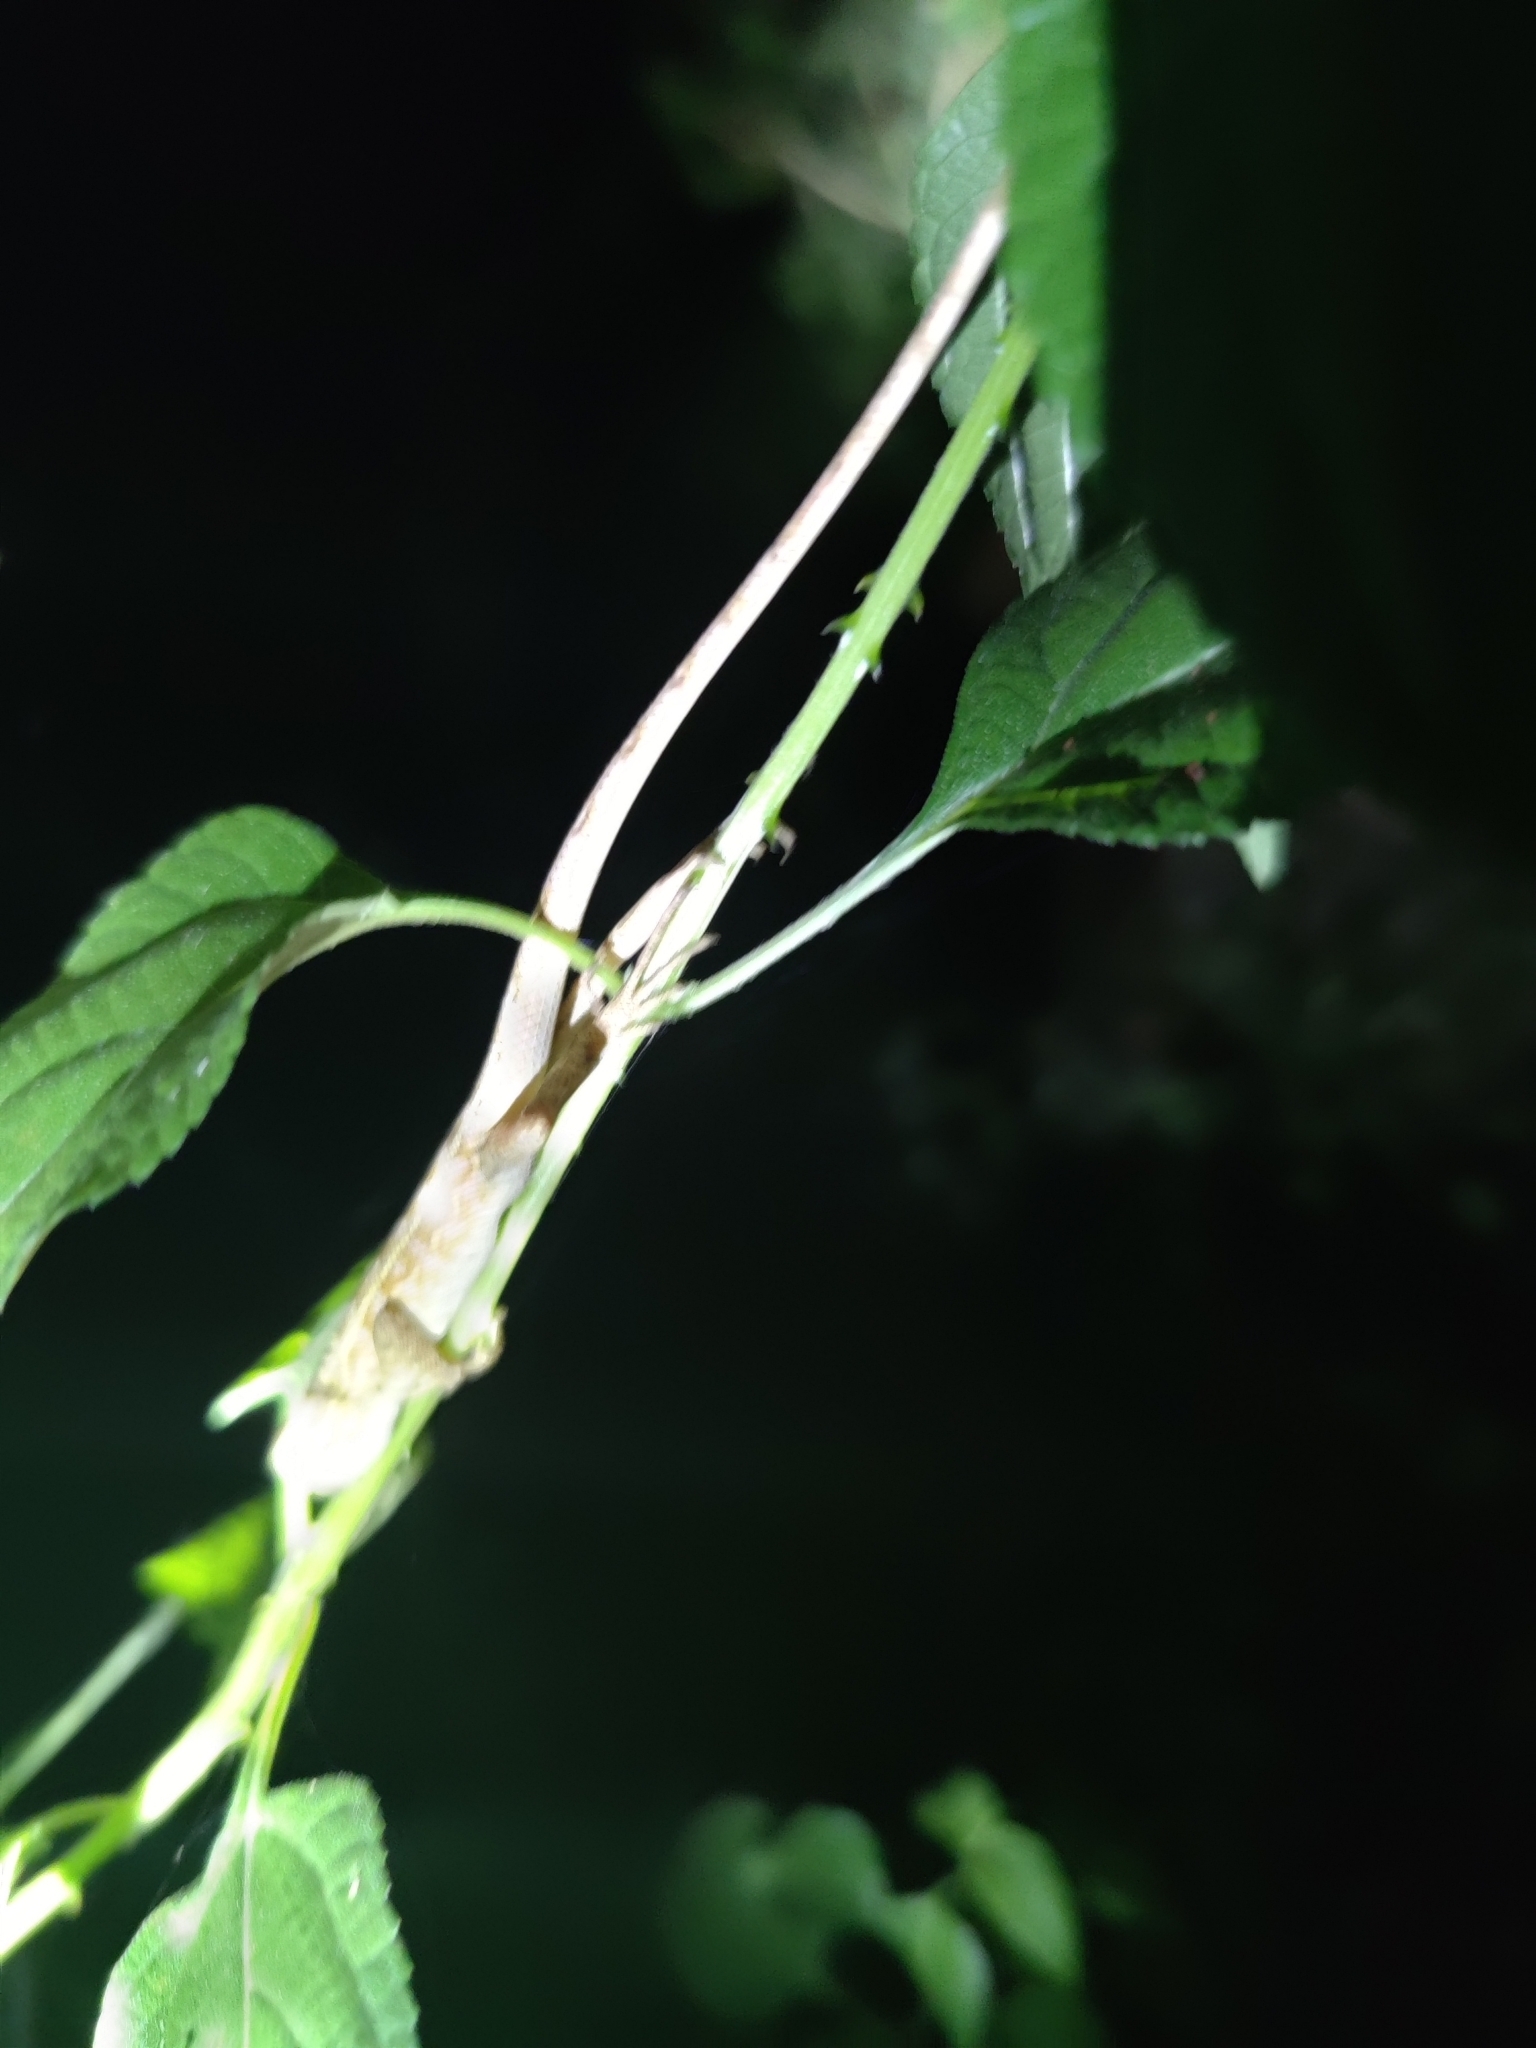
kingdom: Animalia
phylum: Chordata
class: Squamata
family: Agamidae
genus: Calotes
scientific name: Calotes versicolor
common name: Oriental garden lizard
